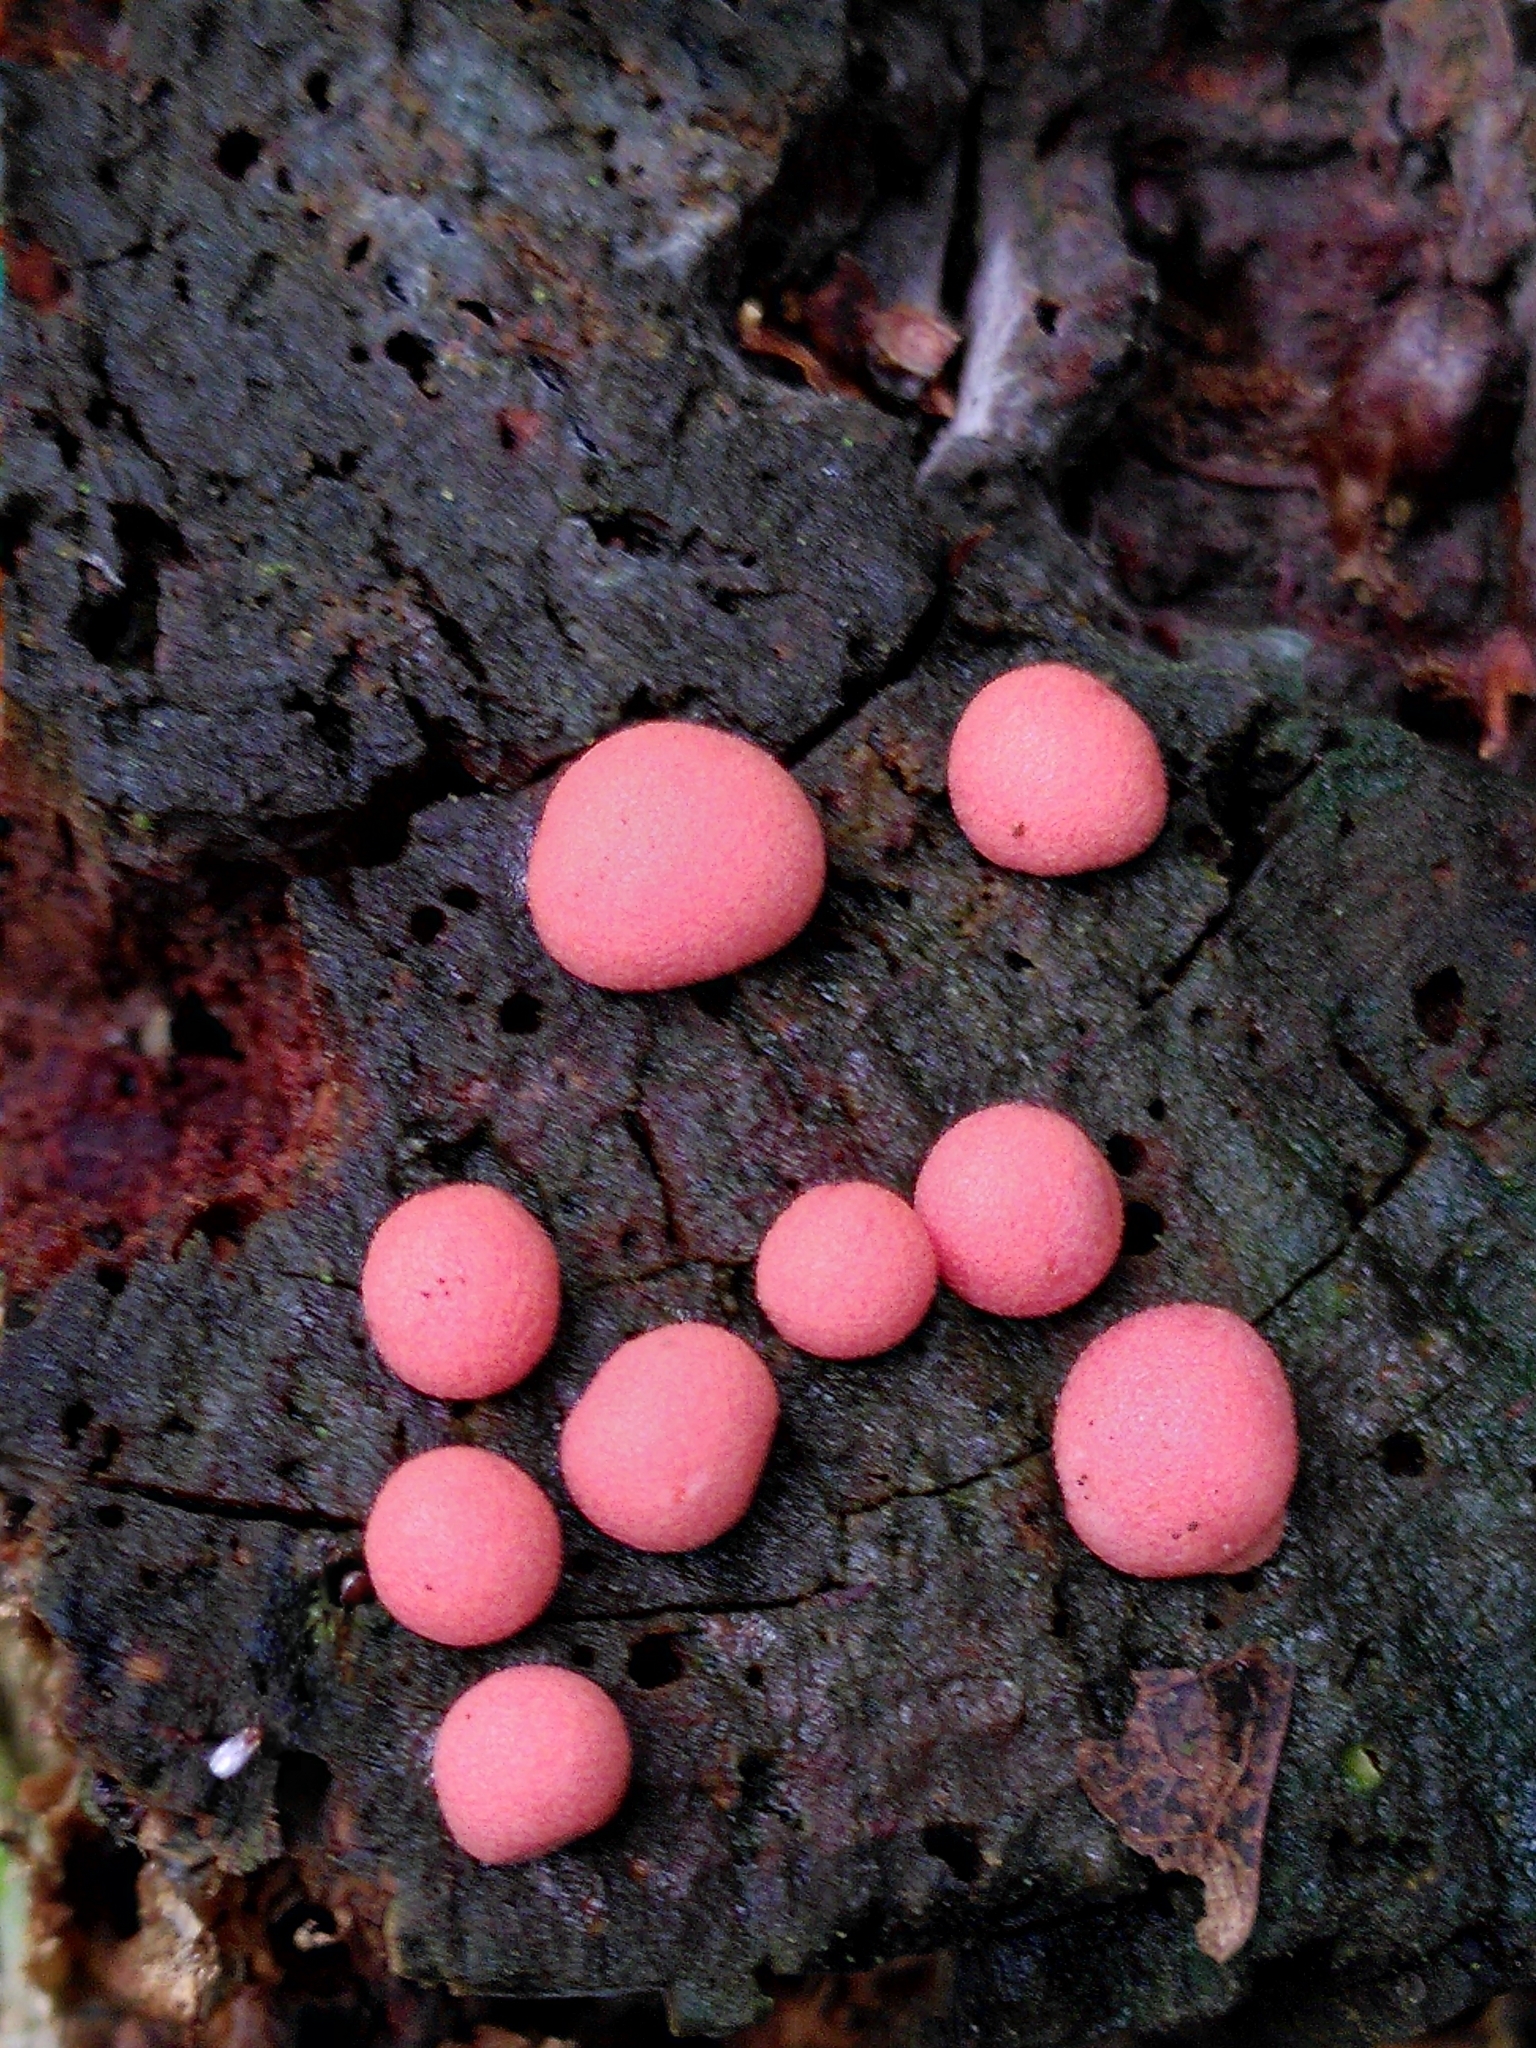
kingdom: Protozoa
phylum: Mycetozoa
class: Myxomycetes
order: Cribrariales
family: Tubiferaceae
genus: Lycogala
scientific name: Lycogala epidendrum
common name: Wolf's milk
